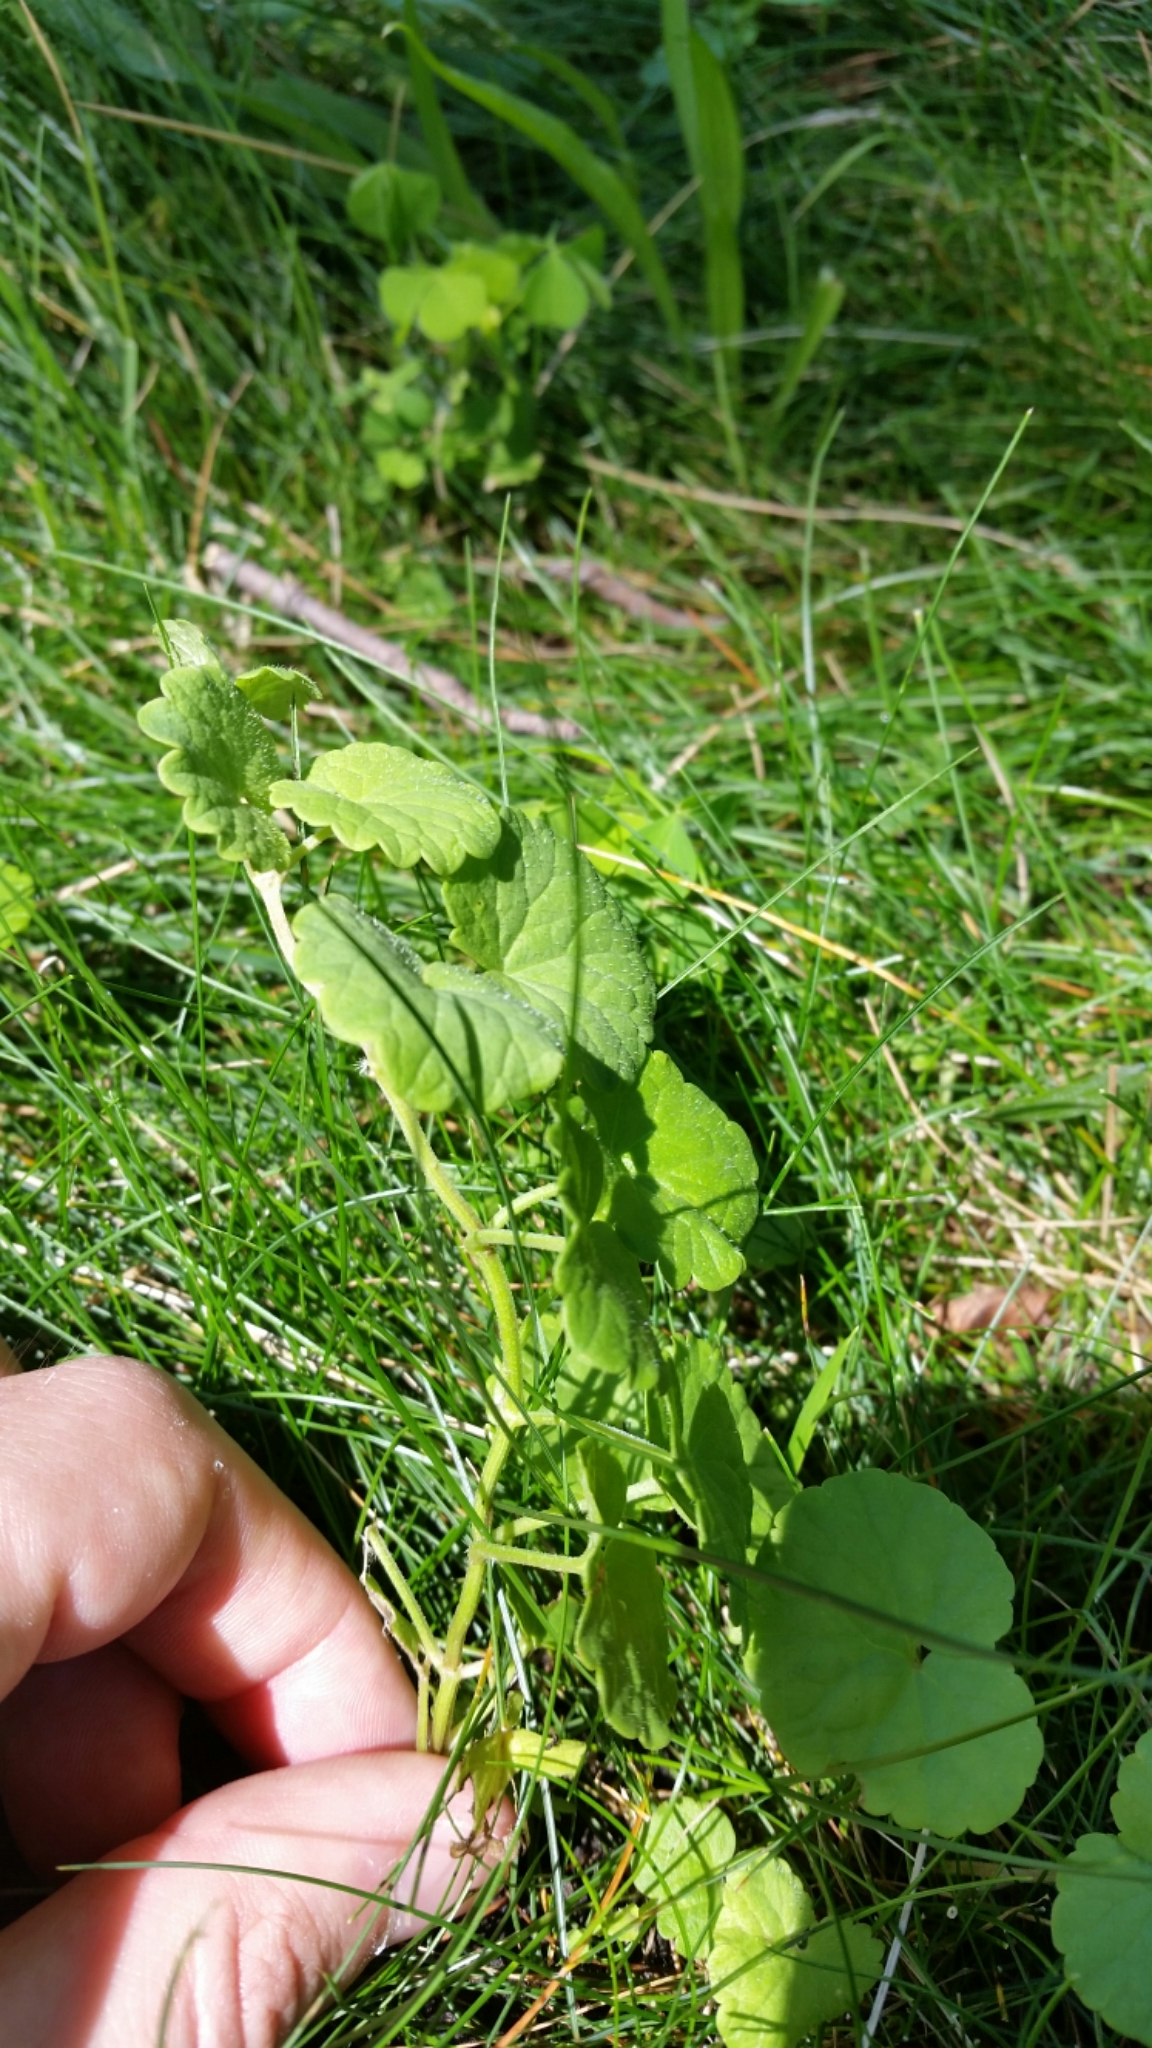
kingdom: Plantae
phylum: Tracheophyta
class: Magnoliopsida
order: Lamiales
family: Lamiaceae
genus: Glechoma
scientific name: Glechoma hederacea
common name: Ground ivy
